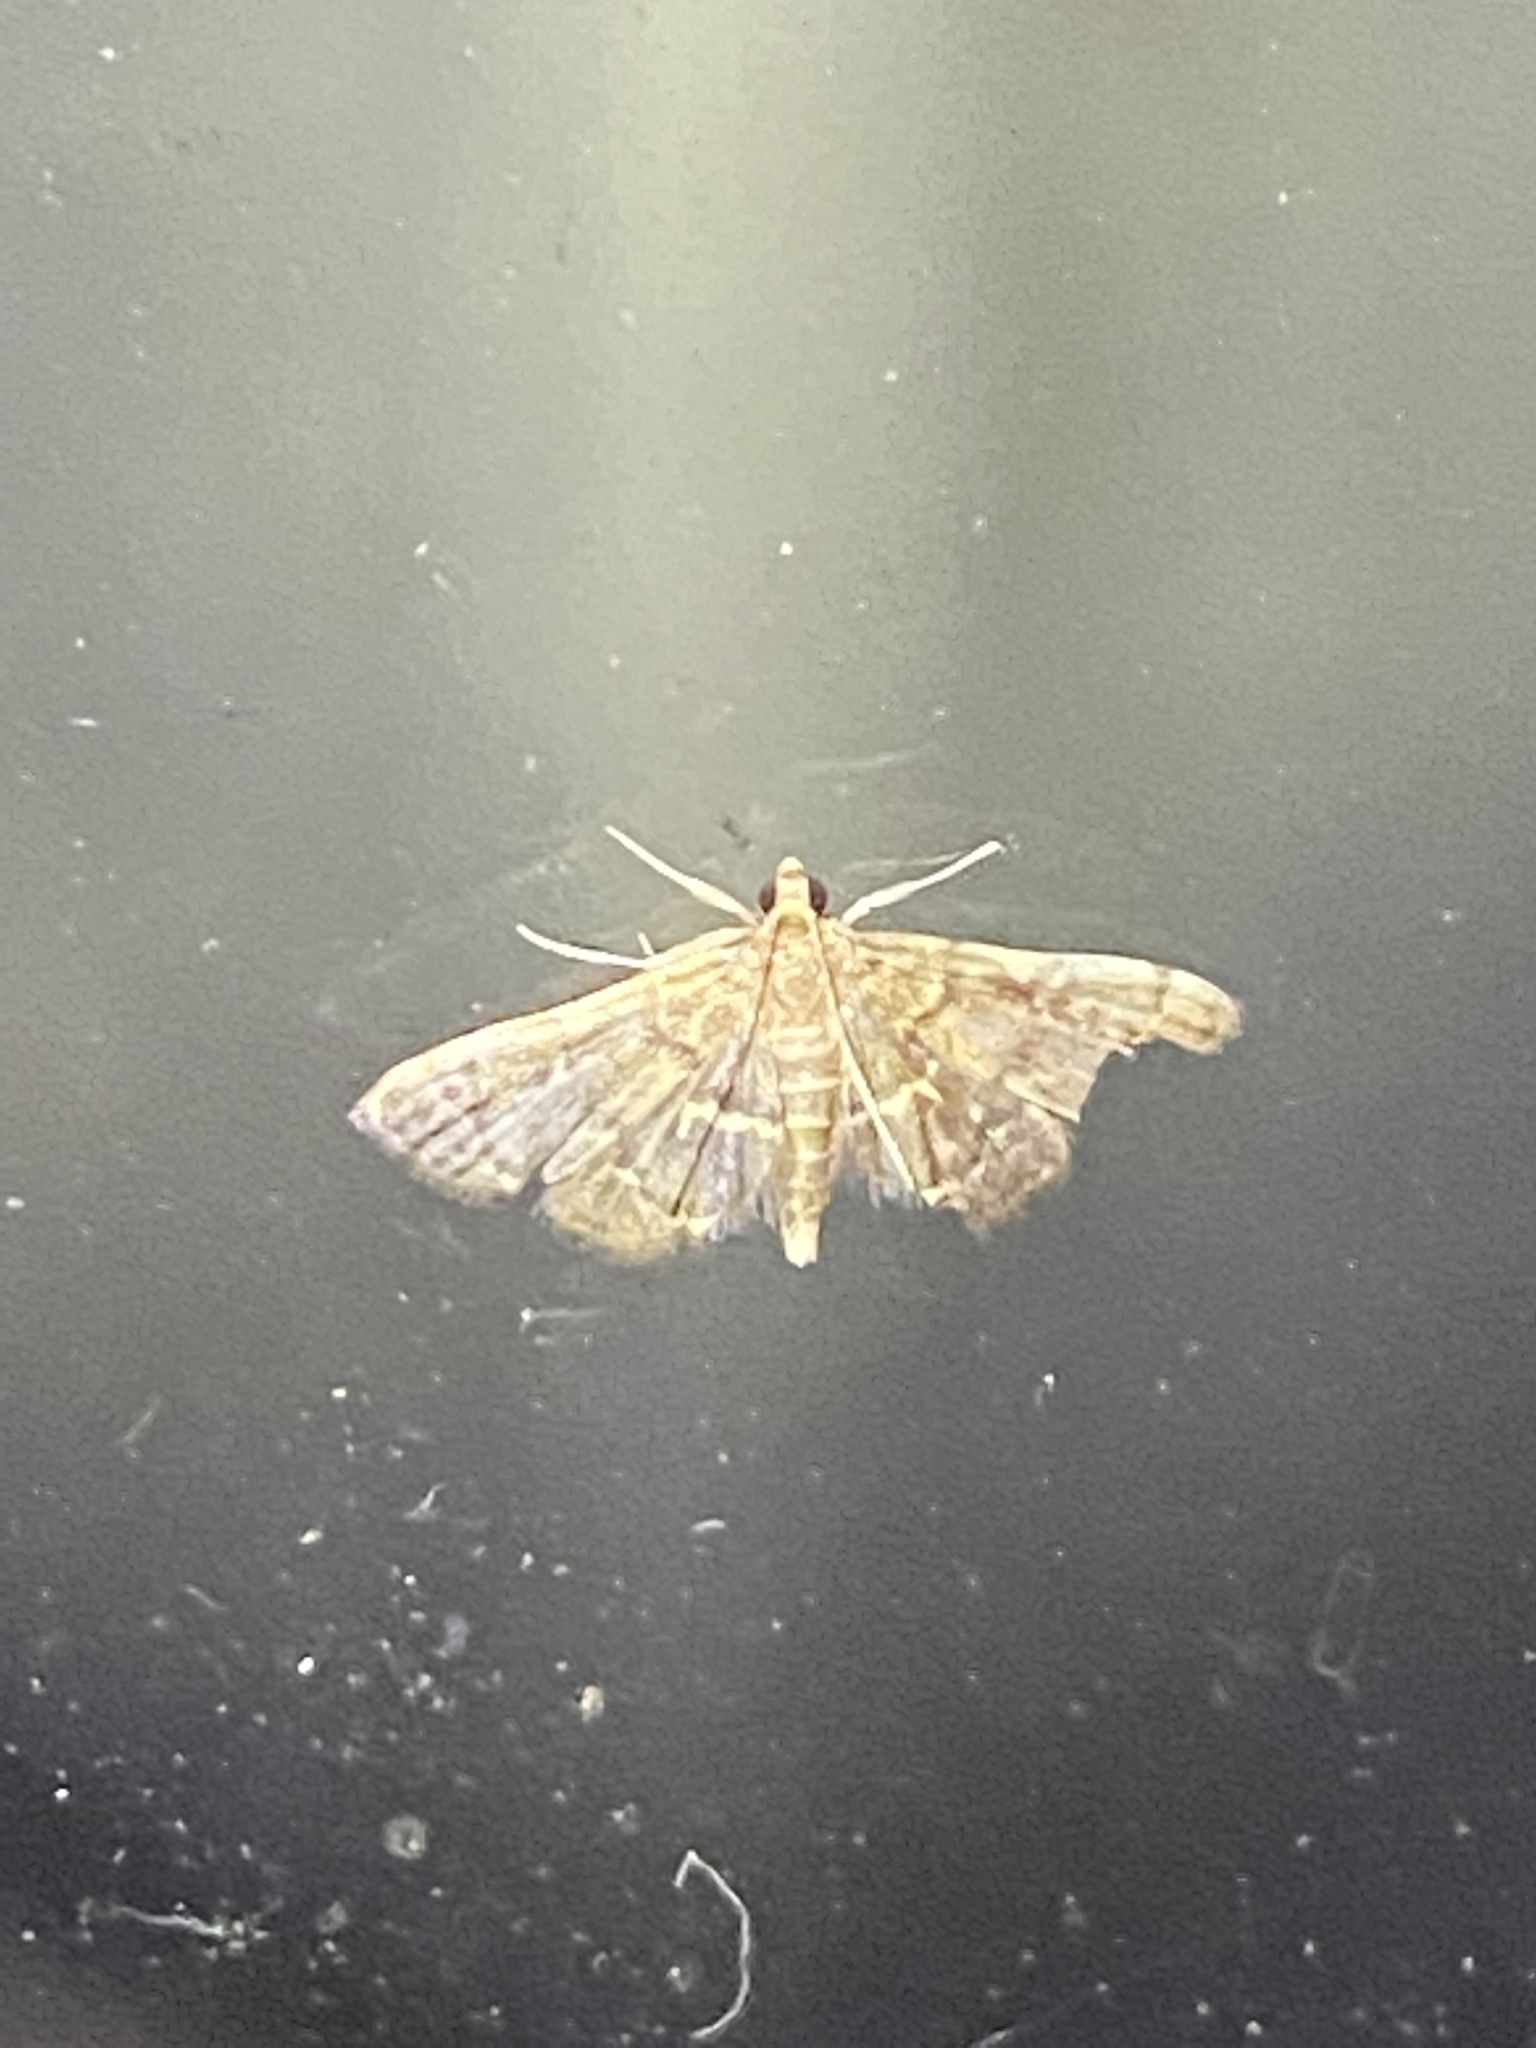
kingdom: Animalia
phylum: Arthropoda
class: Insecta
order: Lepidoptera
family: Crambidae
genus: Anageshna
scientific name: Anageshna primordialis
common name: Yellow-spotted webworm moth
